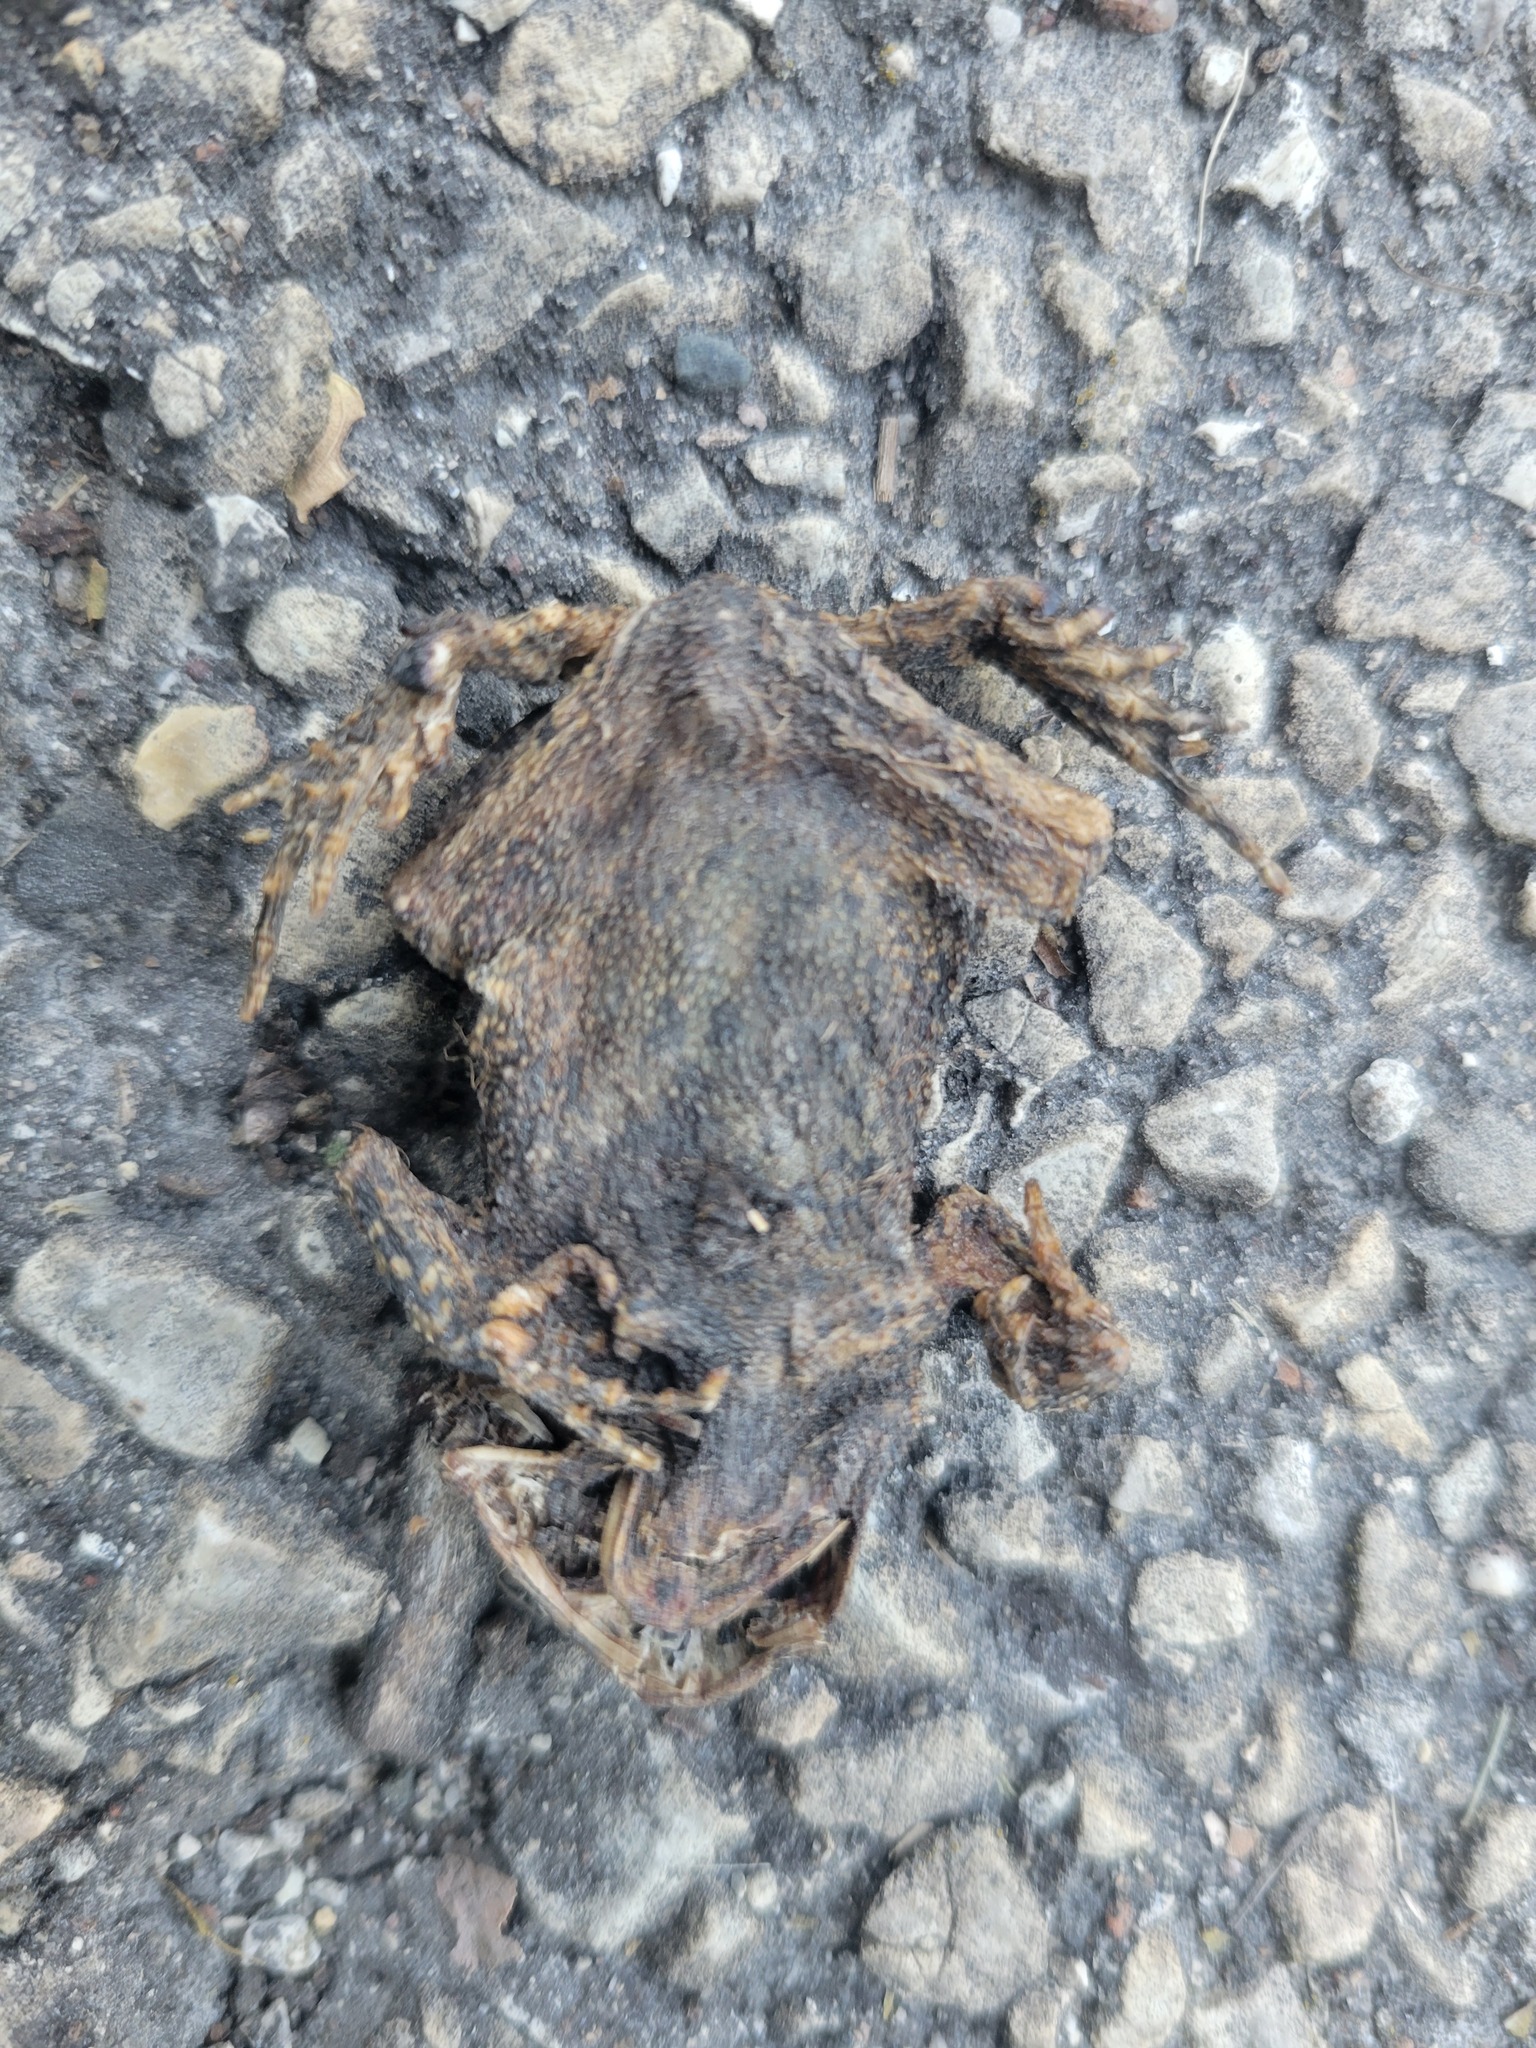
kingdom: Animalia
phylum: Chordata
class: Amphibia
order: Anura
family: Bufonidae
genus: Anaxyrus
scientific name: Anaxyrus americanus
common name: American toad
